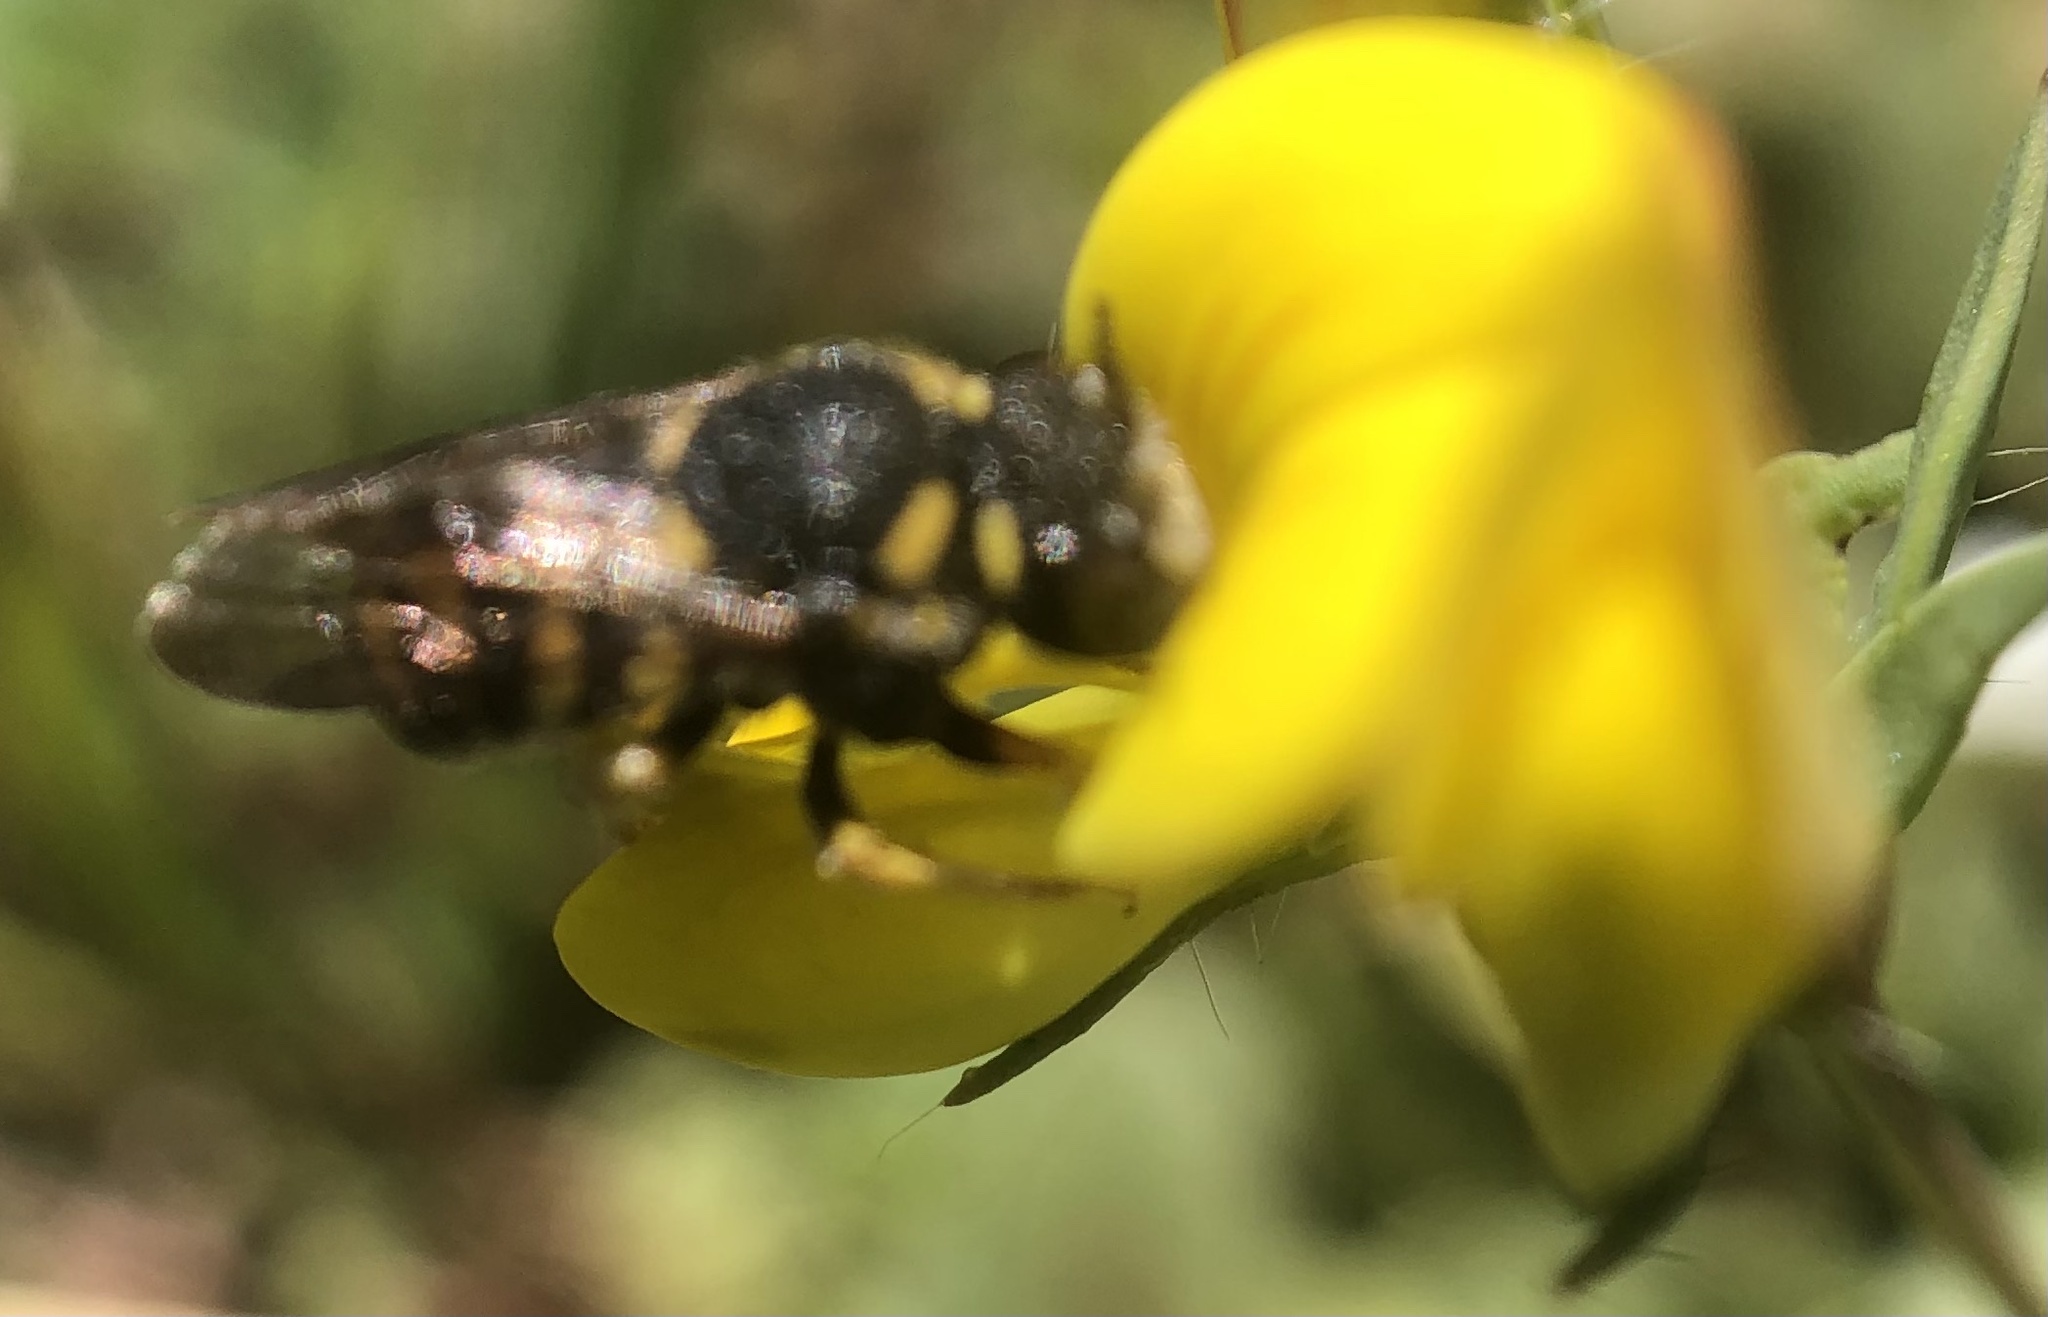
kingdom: Animalia
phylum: Arthropoda
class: Insecta
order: Hymenoptera
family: Megachilidae
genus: Anthidiellum
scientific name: Anthidiellum strigatum
